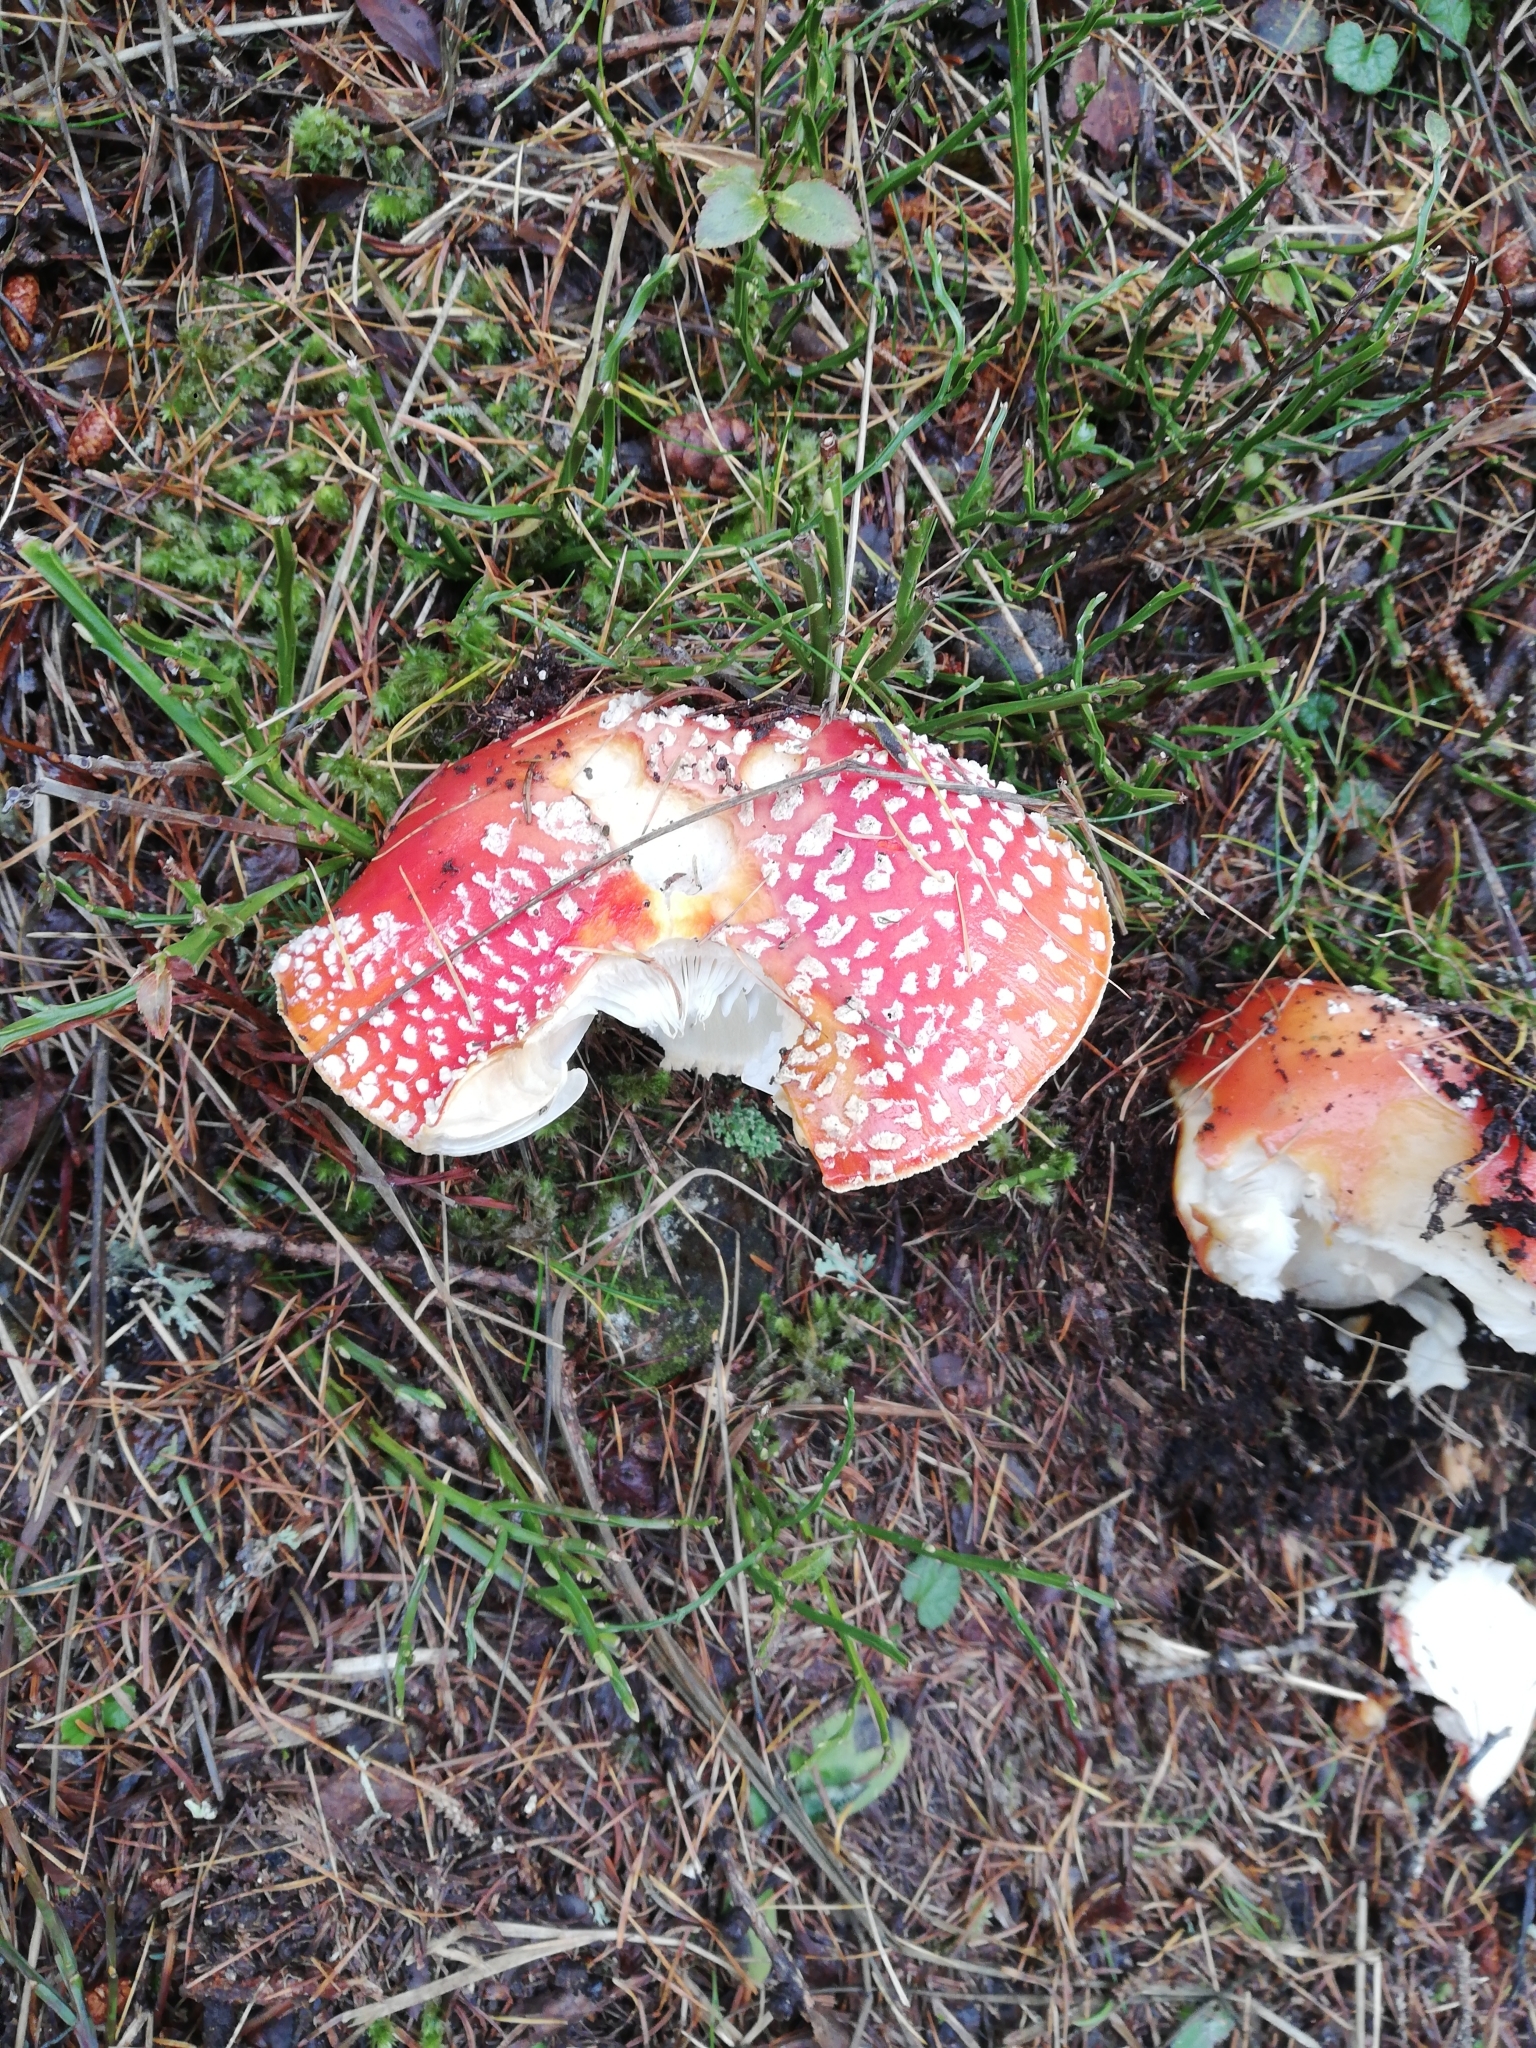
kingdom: Fungi
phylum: Basidiomycota
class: Agaricomycetes
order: Agaricales
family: Amanitaceae
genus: Amanita
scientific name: Amanita muscaria
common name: Fly agaric
